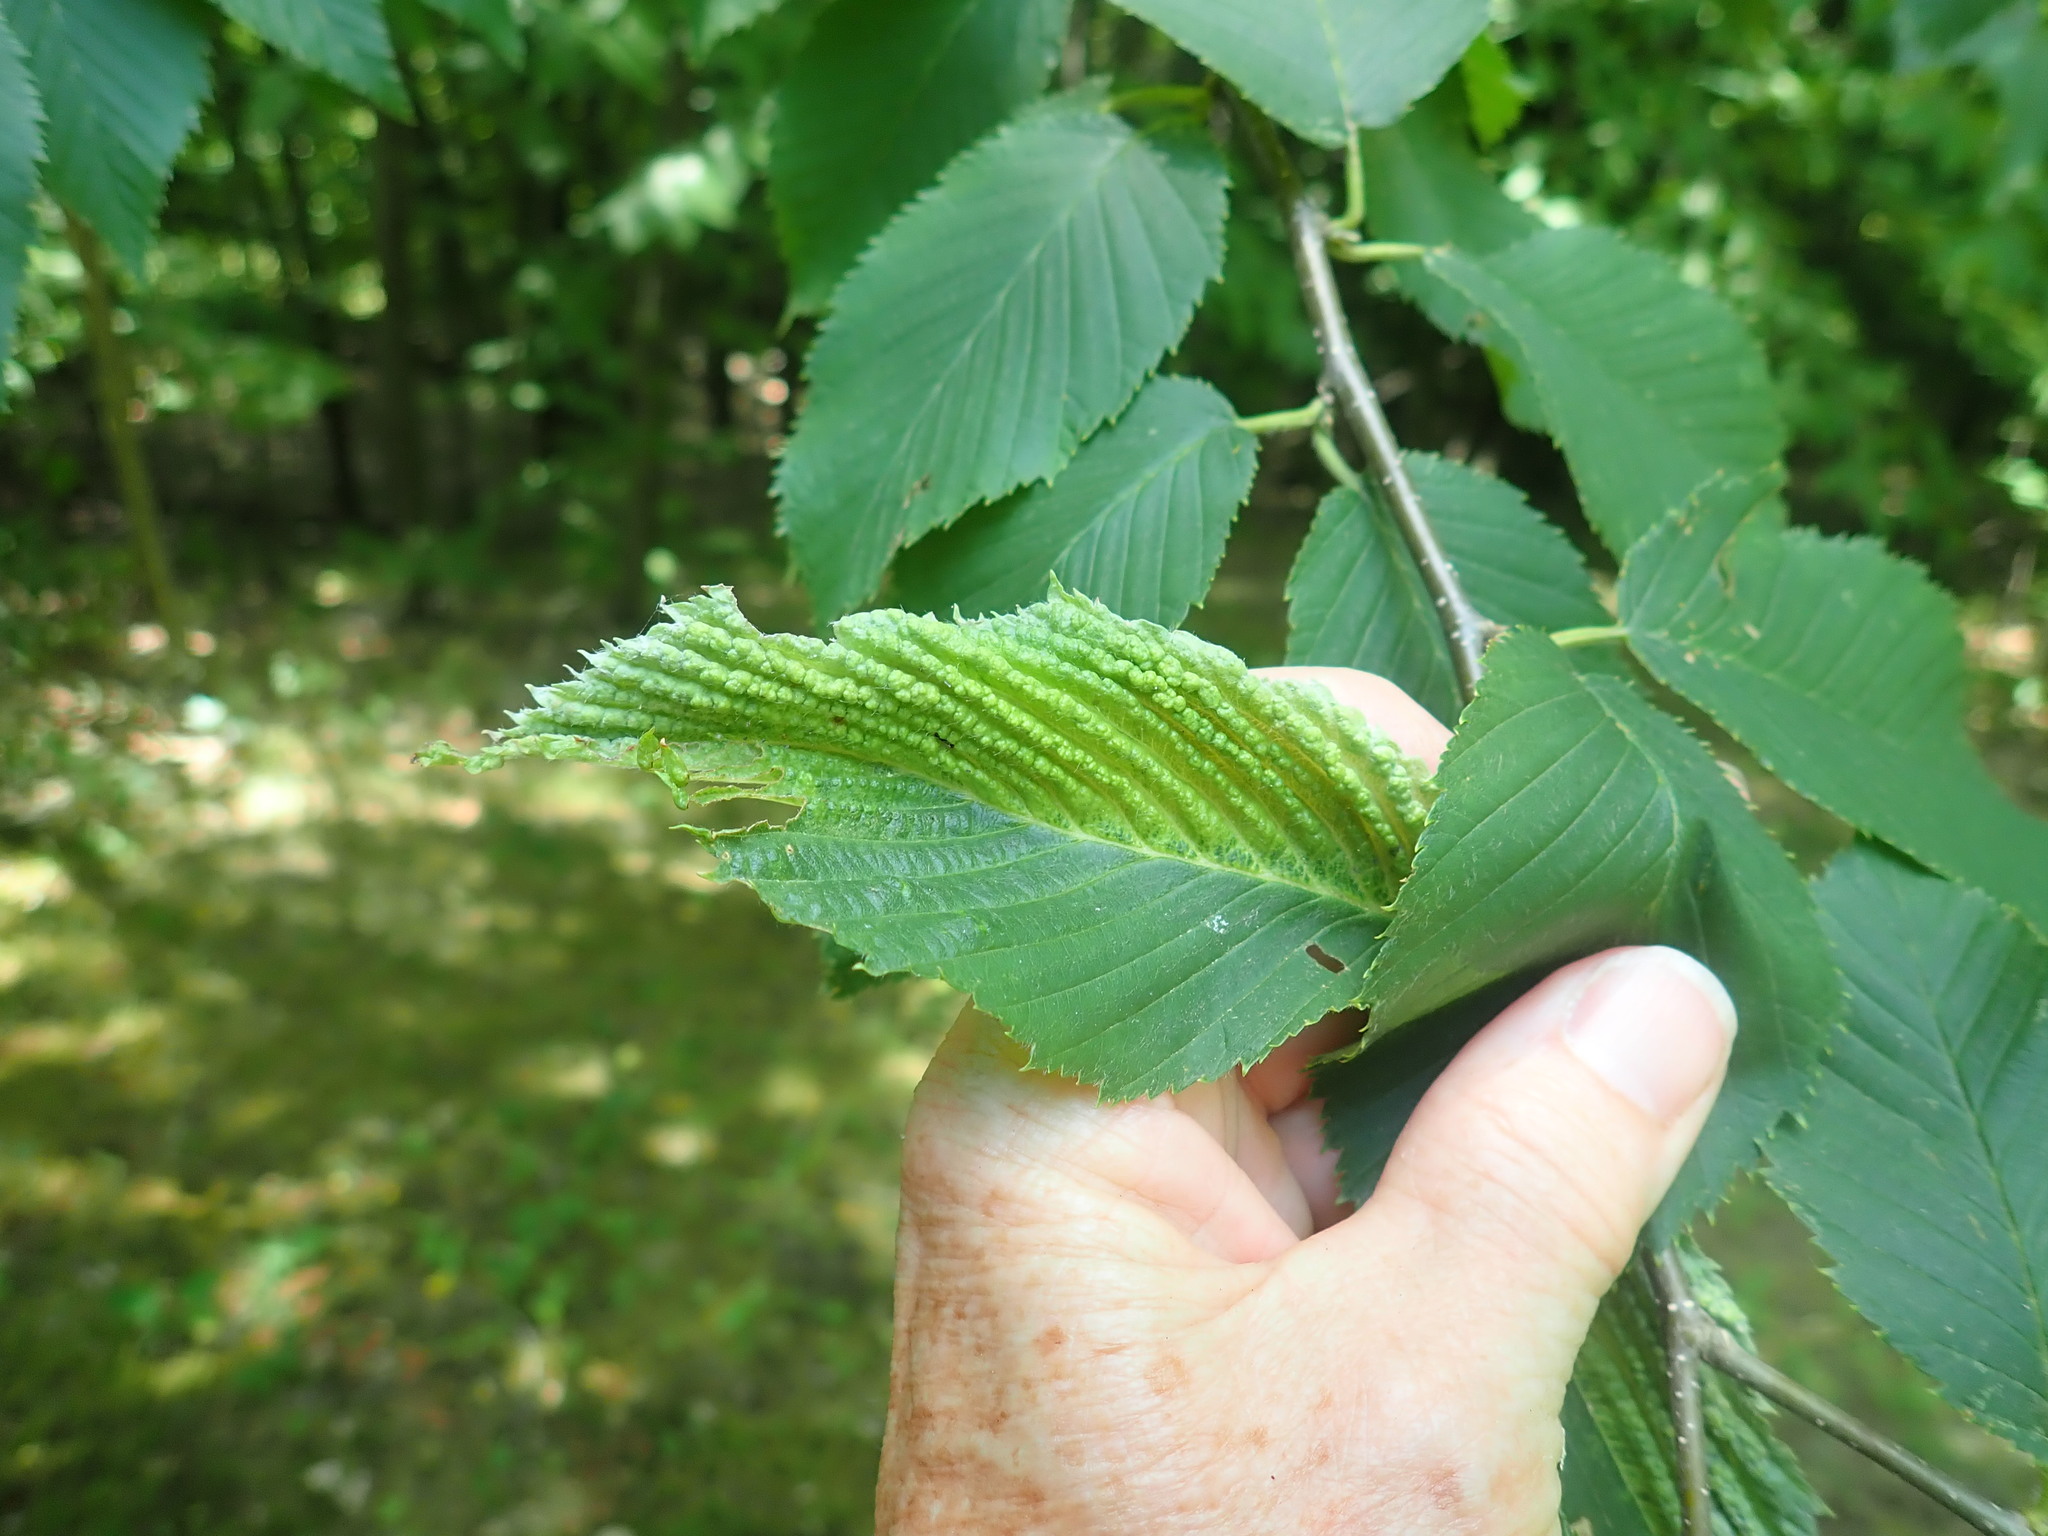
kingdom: Animalia
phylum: Arthropoda
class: Insecta
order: Hemiptera
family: Aphididae
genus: Hamamelistes
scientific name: Hamamelistes spinosus
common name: Witch hazel gall aphid
